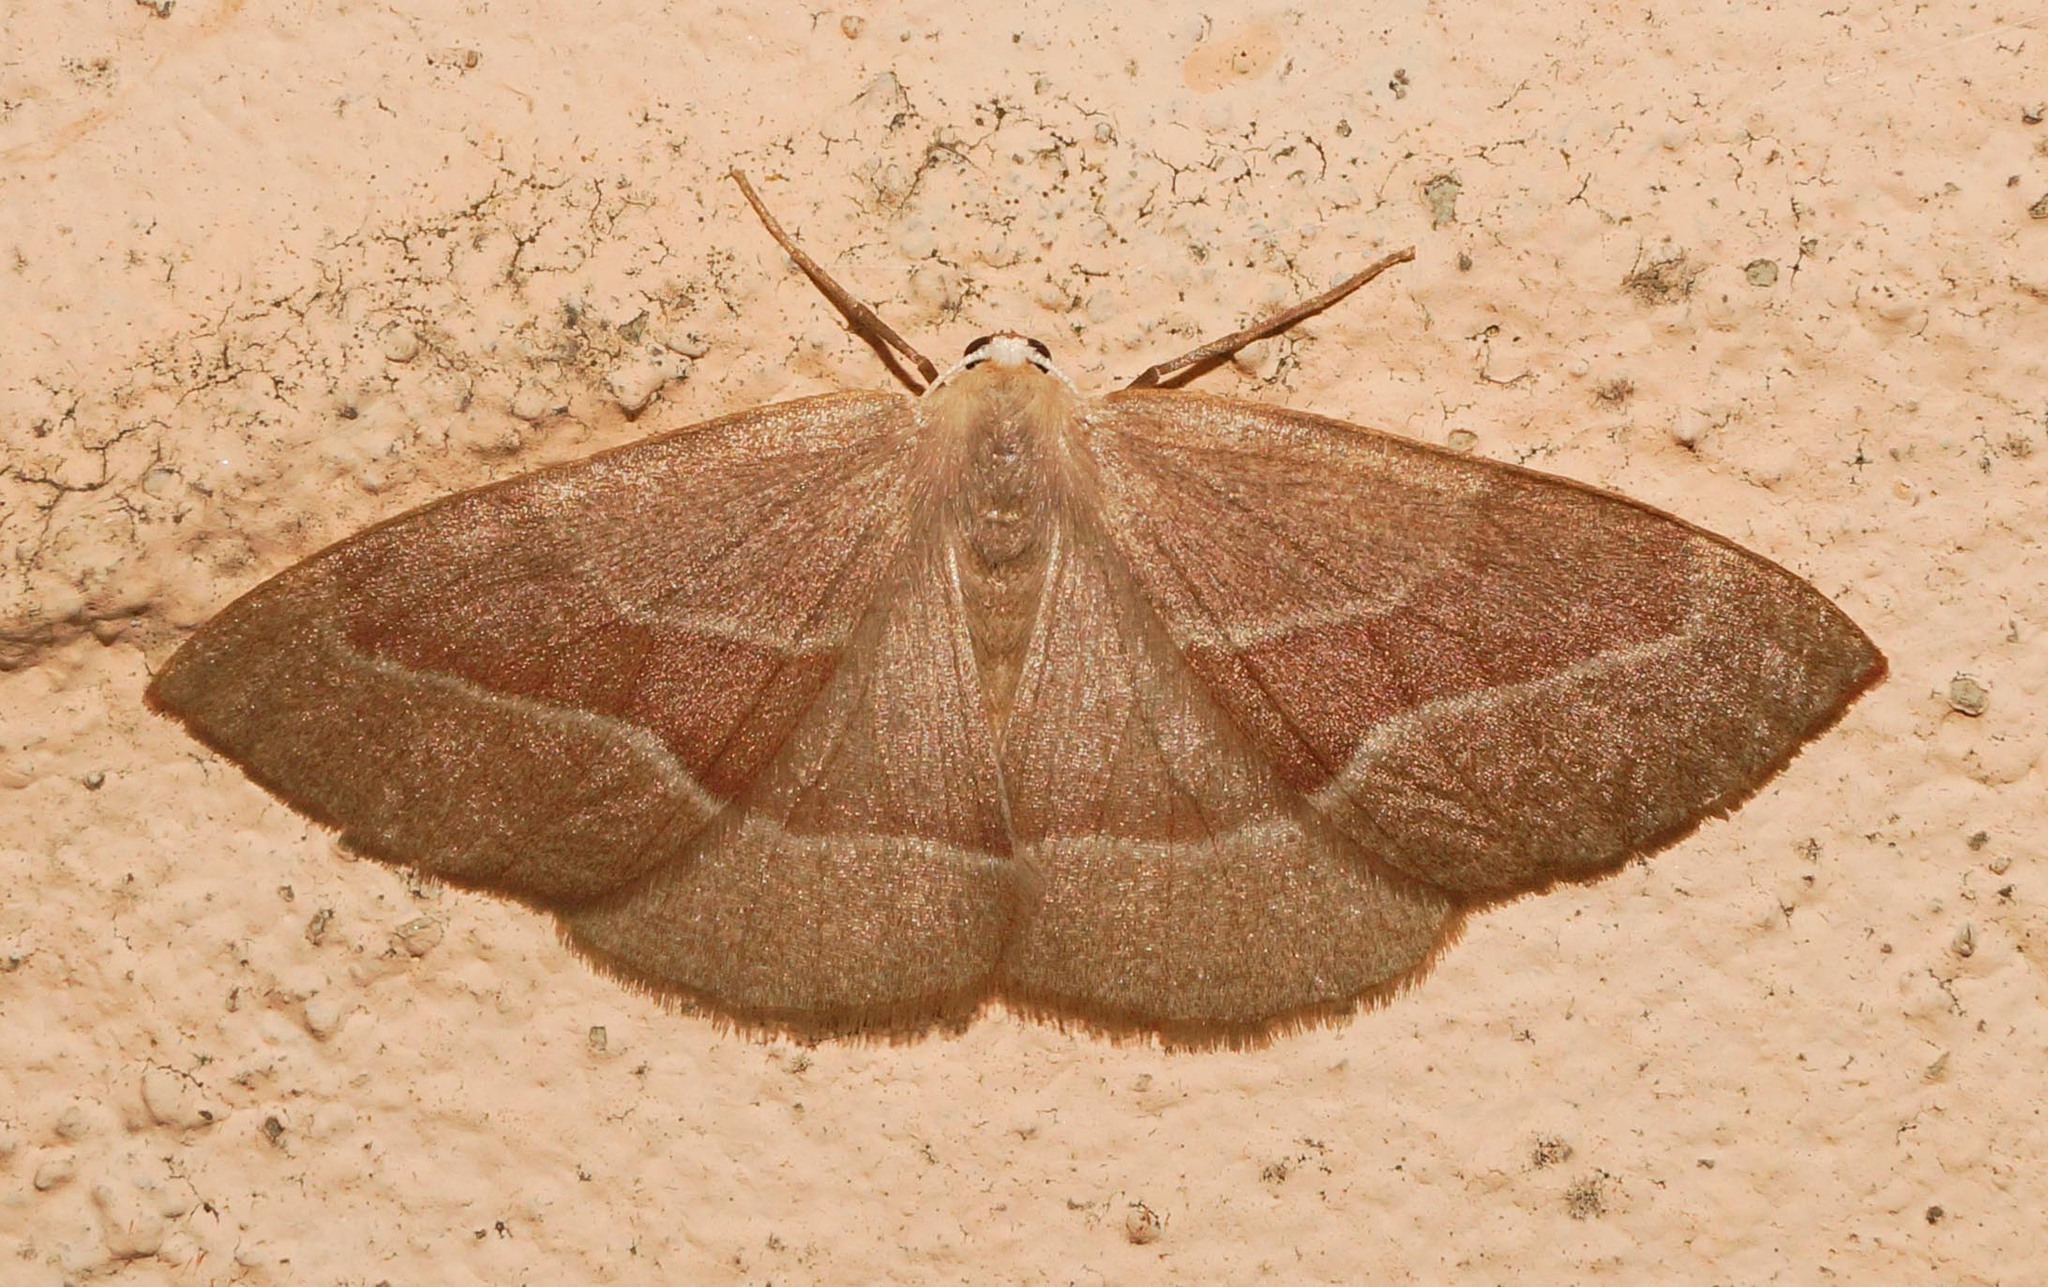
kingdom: Animalia
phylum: Arthropoda
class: Insecta
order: Lepidoptera
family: Geometridae
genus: Hylaea
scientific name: Hylaea fasciaria
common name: Barred red
